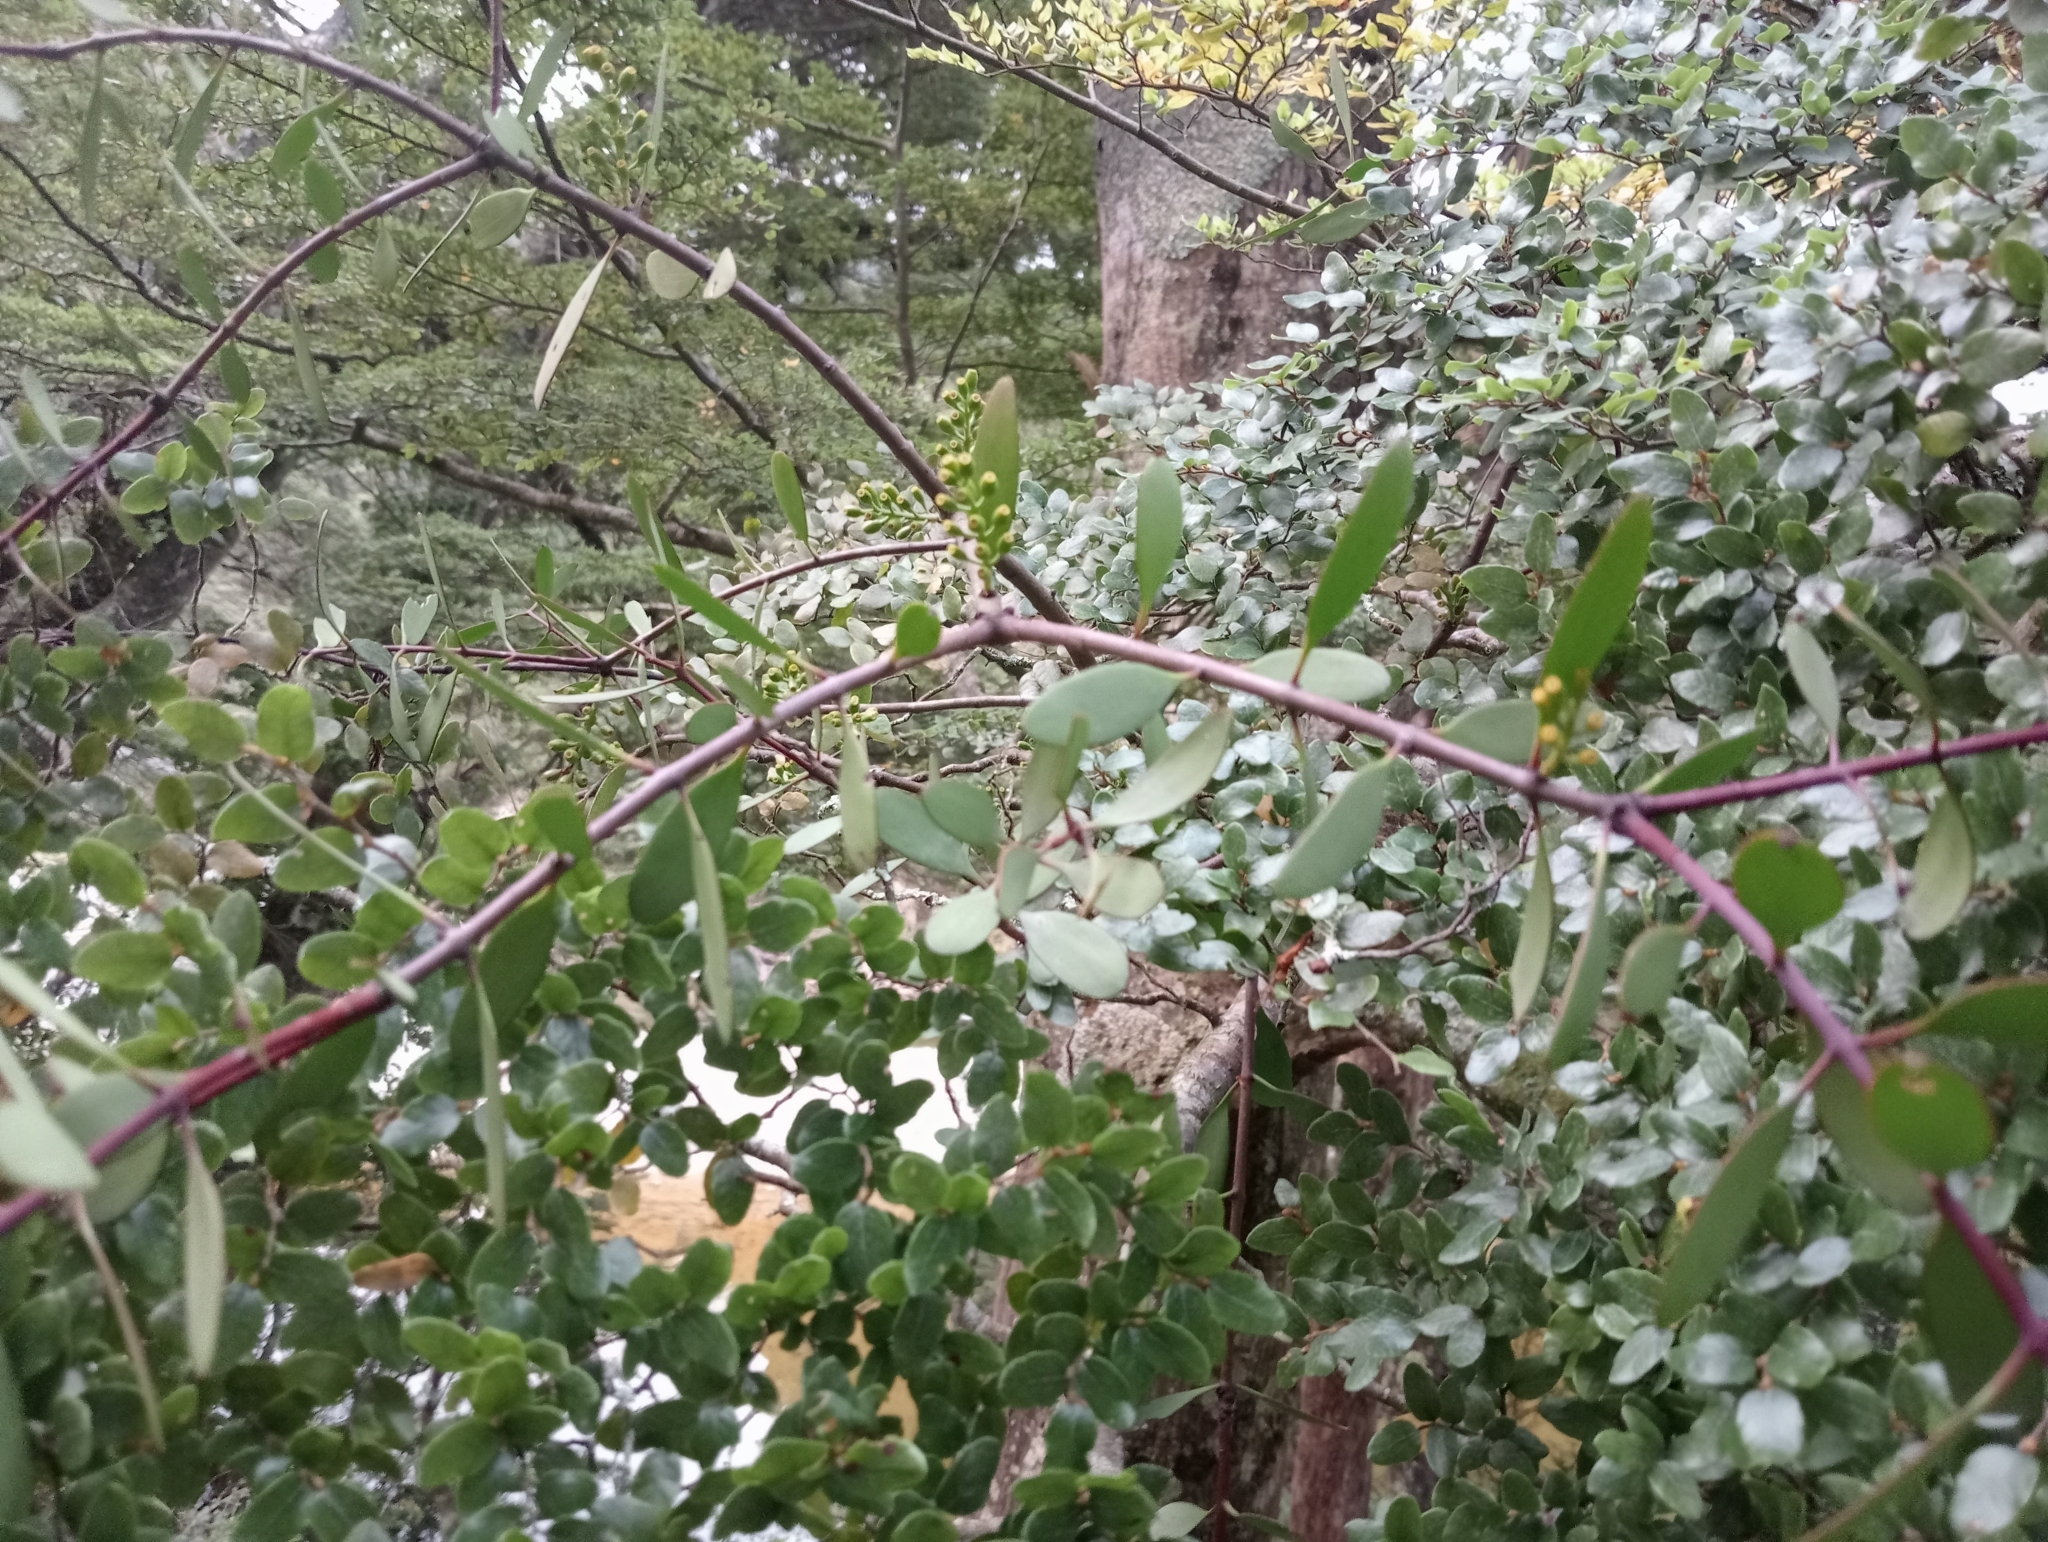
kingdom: Plantae
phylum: Tracheophyta
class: Magnoliopsida
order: Santalales
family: Loranthaceae
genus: Alepis
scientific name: Alepis flavida
